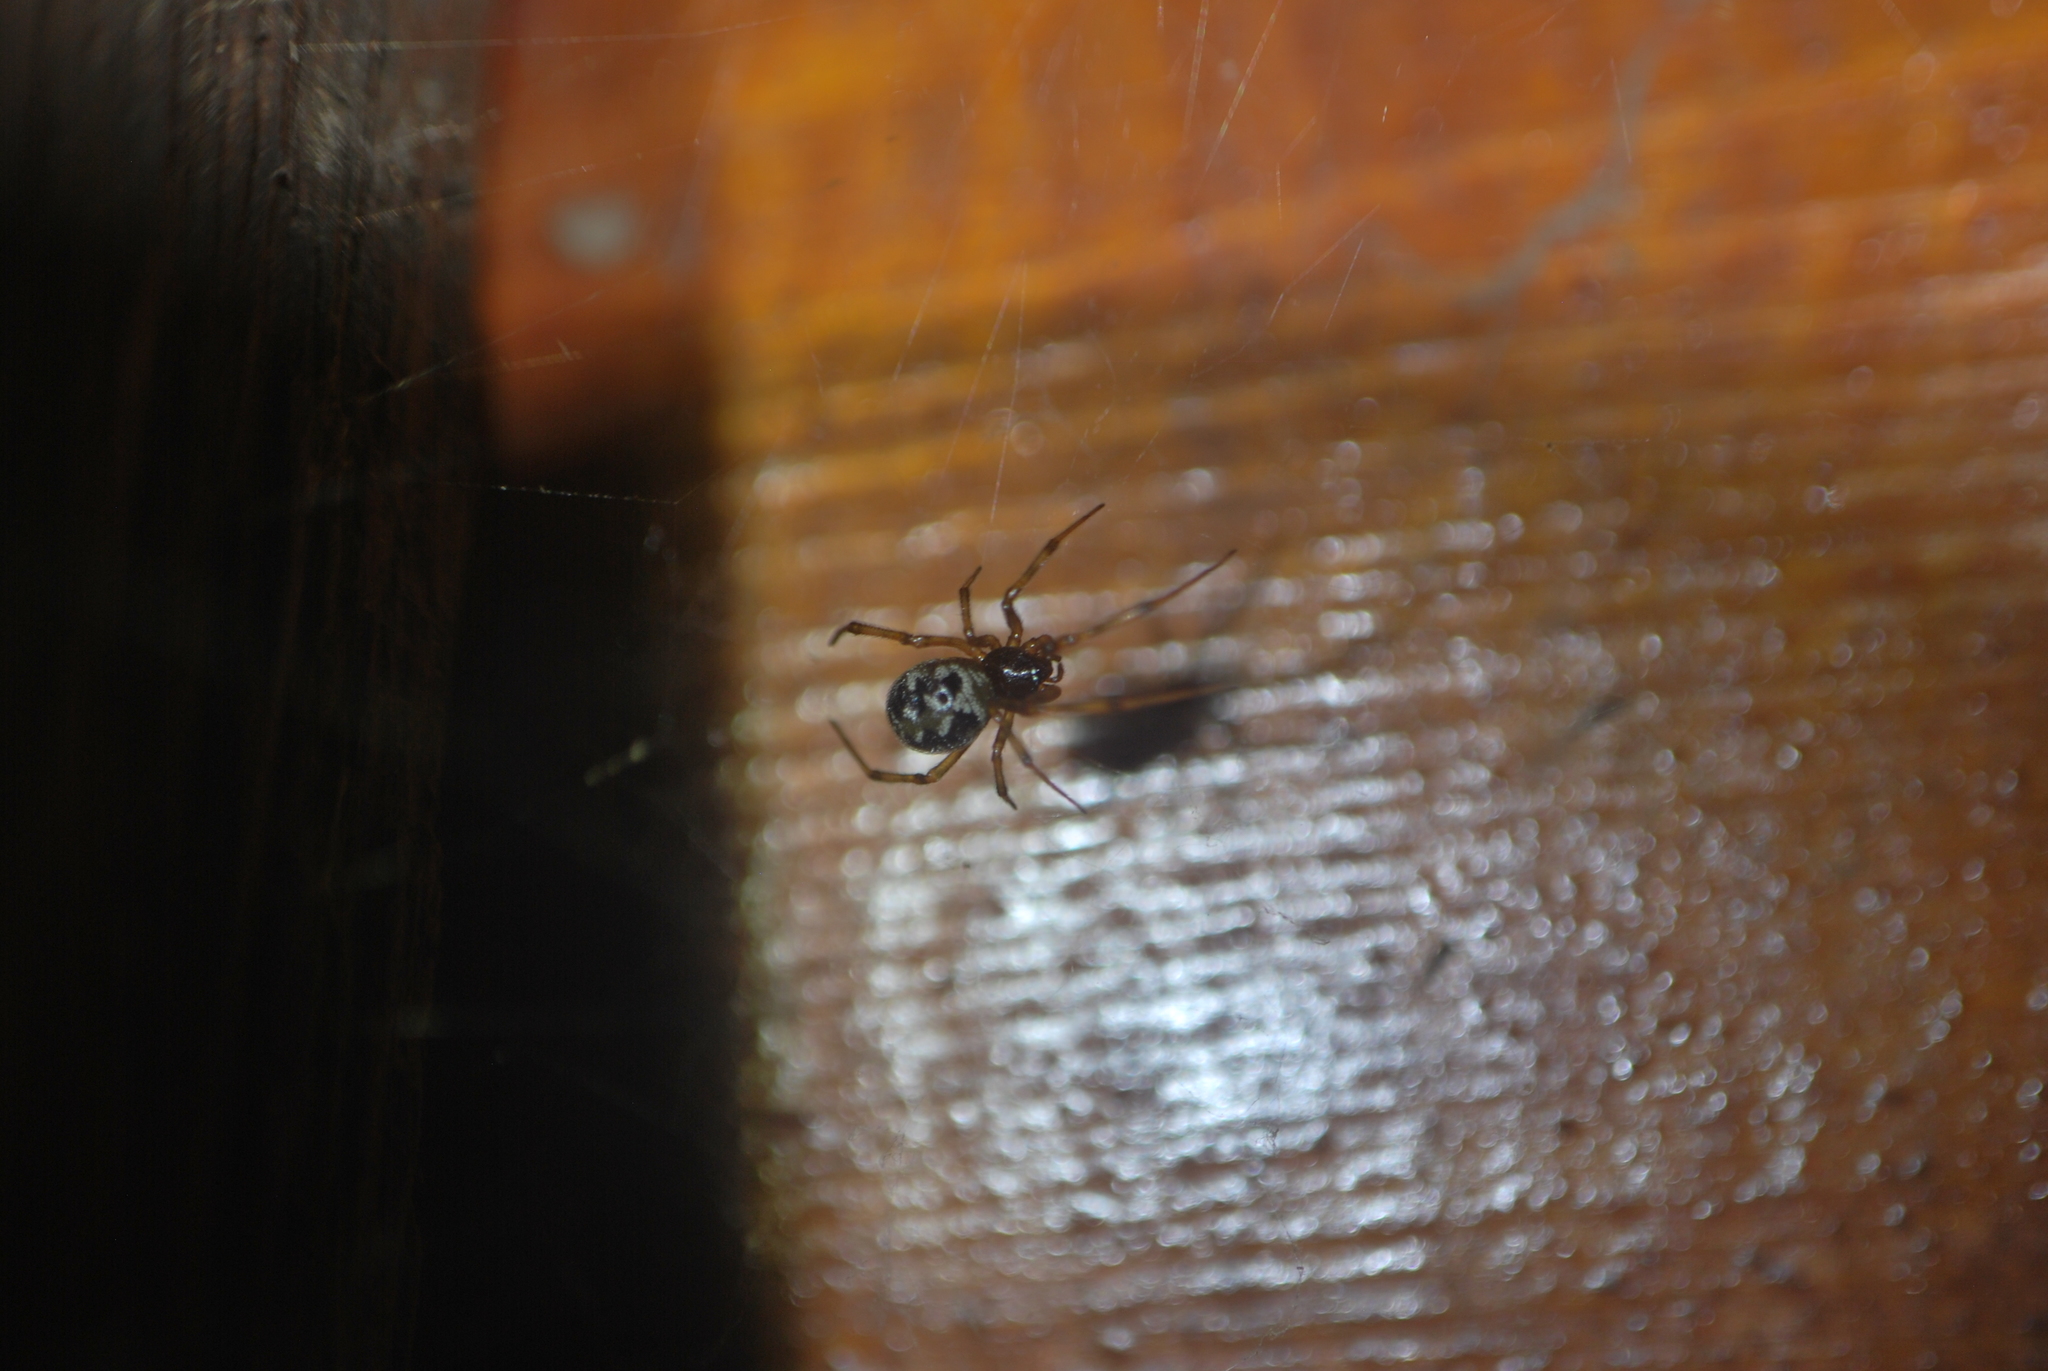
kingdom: Animalia
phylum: Arthropoda
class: Arachnida
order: Araneae
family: Theridiidae
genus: Steatoda
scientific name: Steatoda triangulosa
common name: Triangulate bud spider
